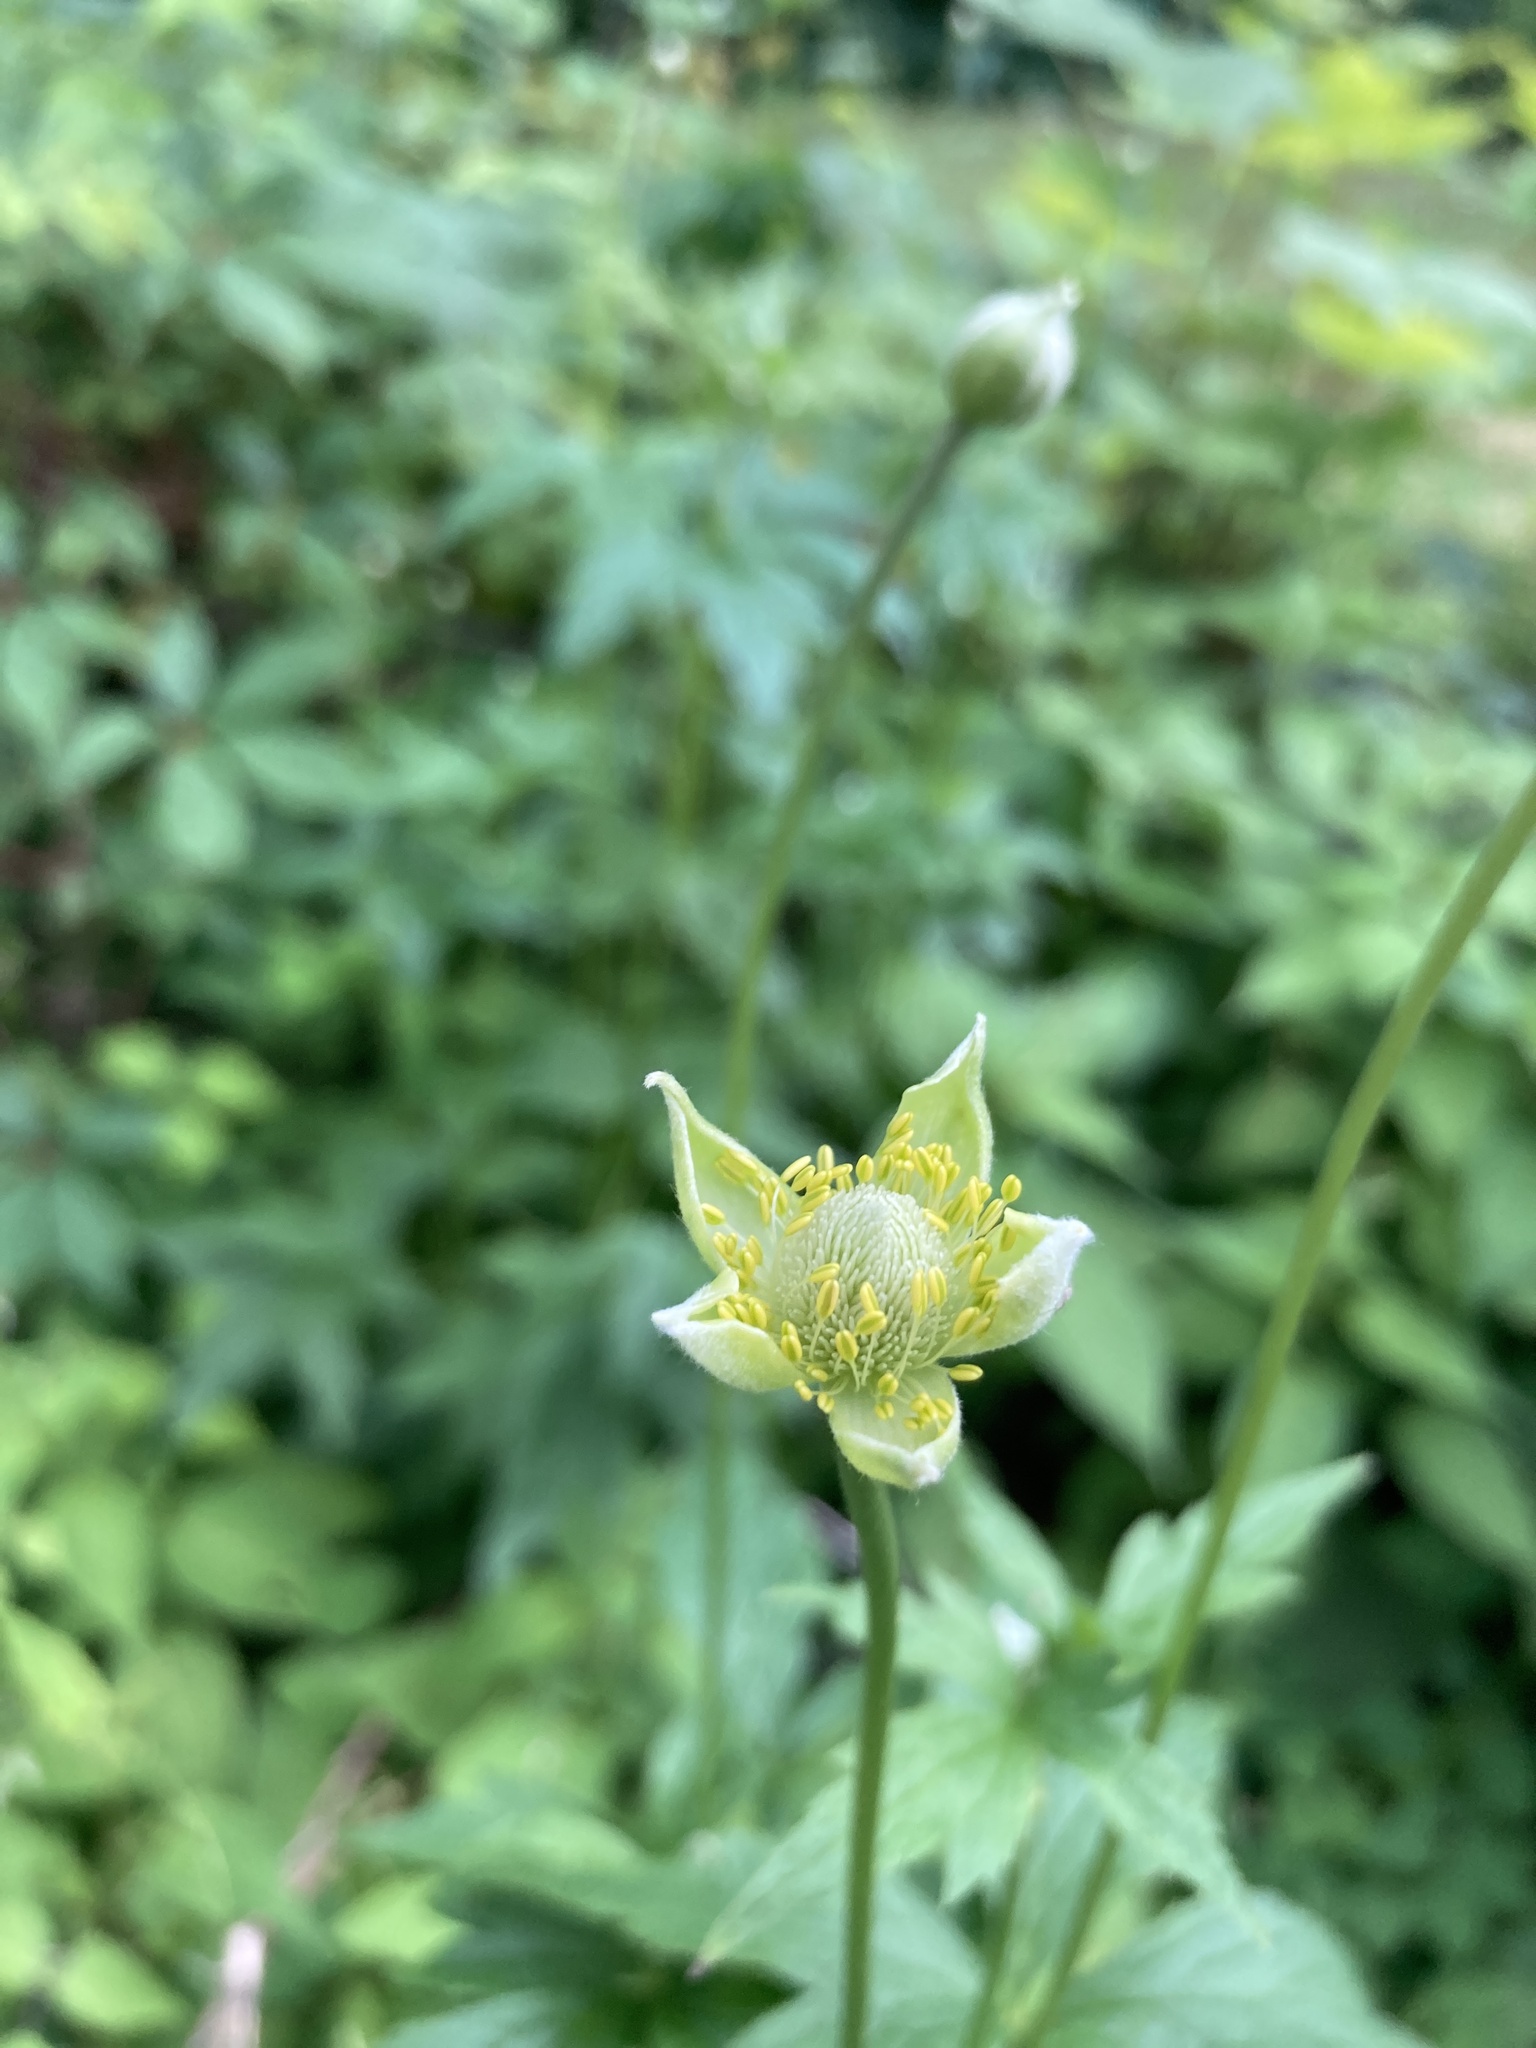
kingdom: Plantae
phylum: Tracheophyta
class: Magnoliopsida
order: Ranunculales
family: Ranunculaceae
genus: Anemone
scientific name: Anemone virginiana
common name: Tall anemone
